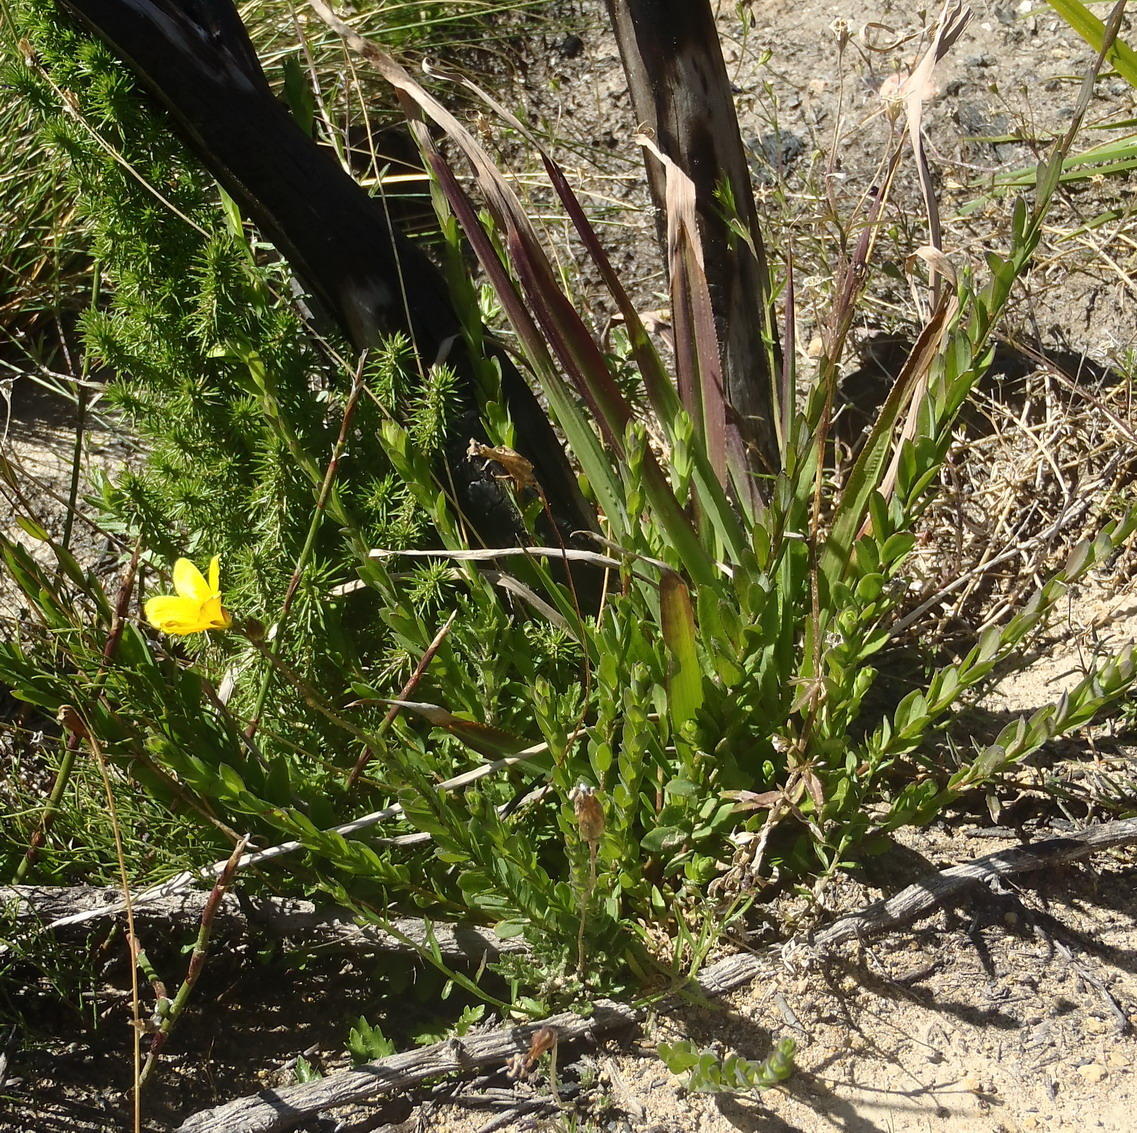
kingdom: Plantae
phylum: Tracheophyta
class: Magnoliopsida
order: Malpighiales
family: Linaceae
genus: Linum
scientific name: Linum africanum
